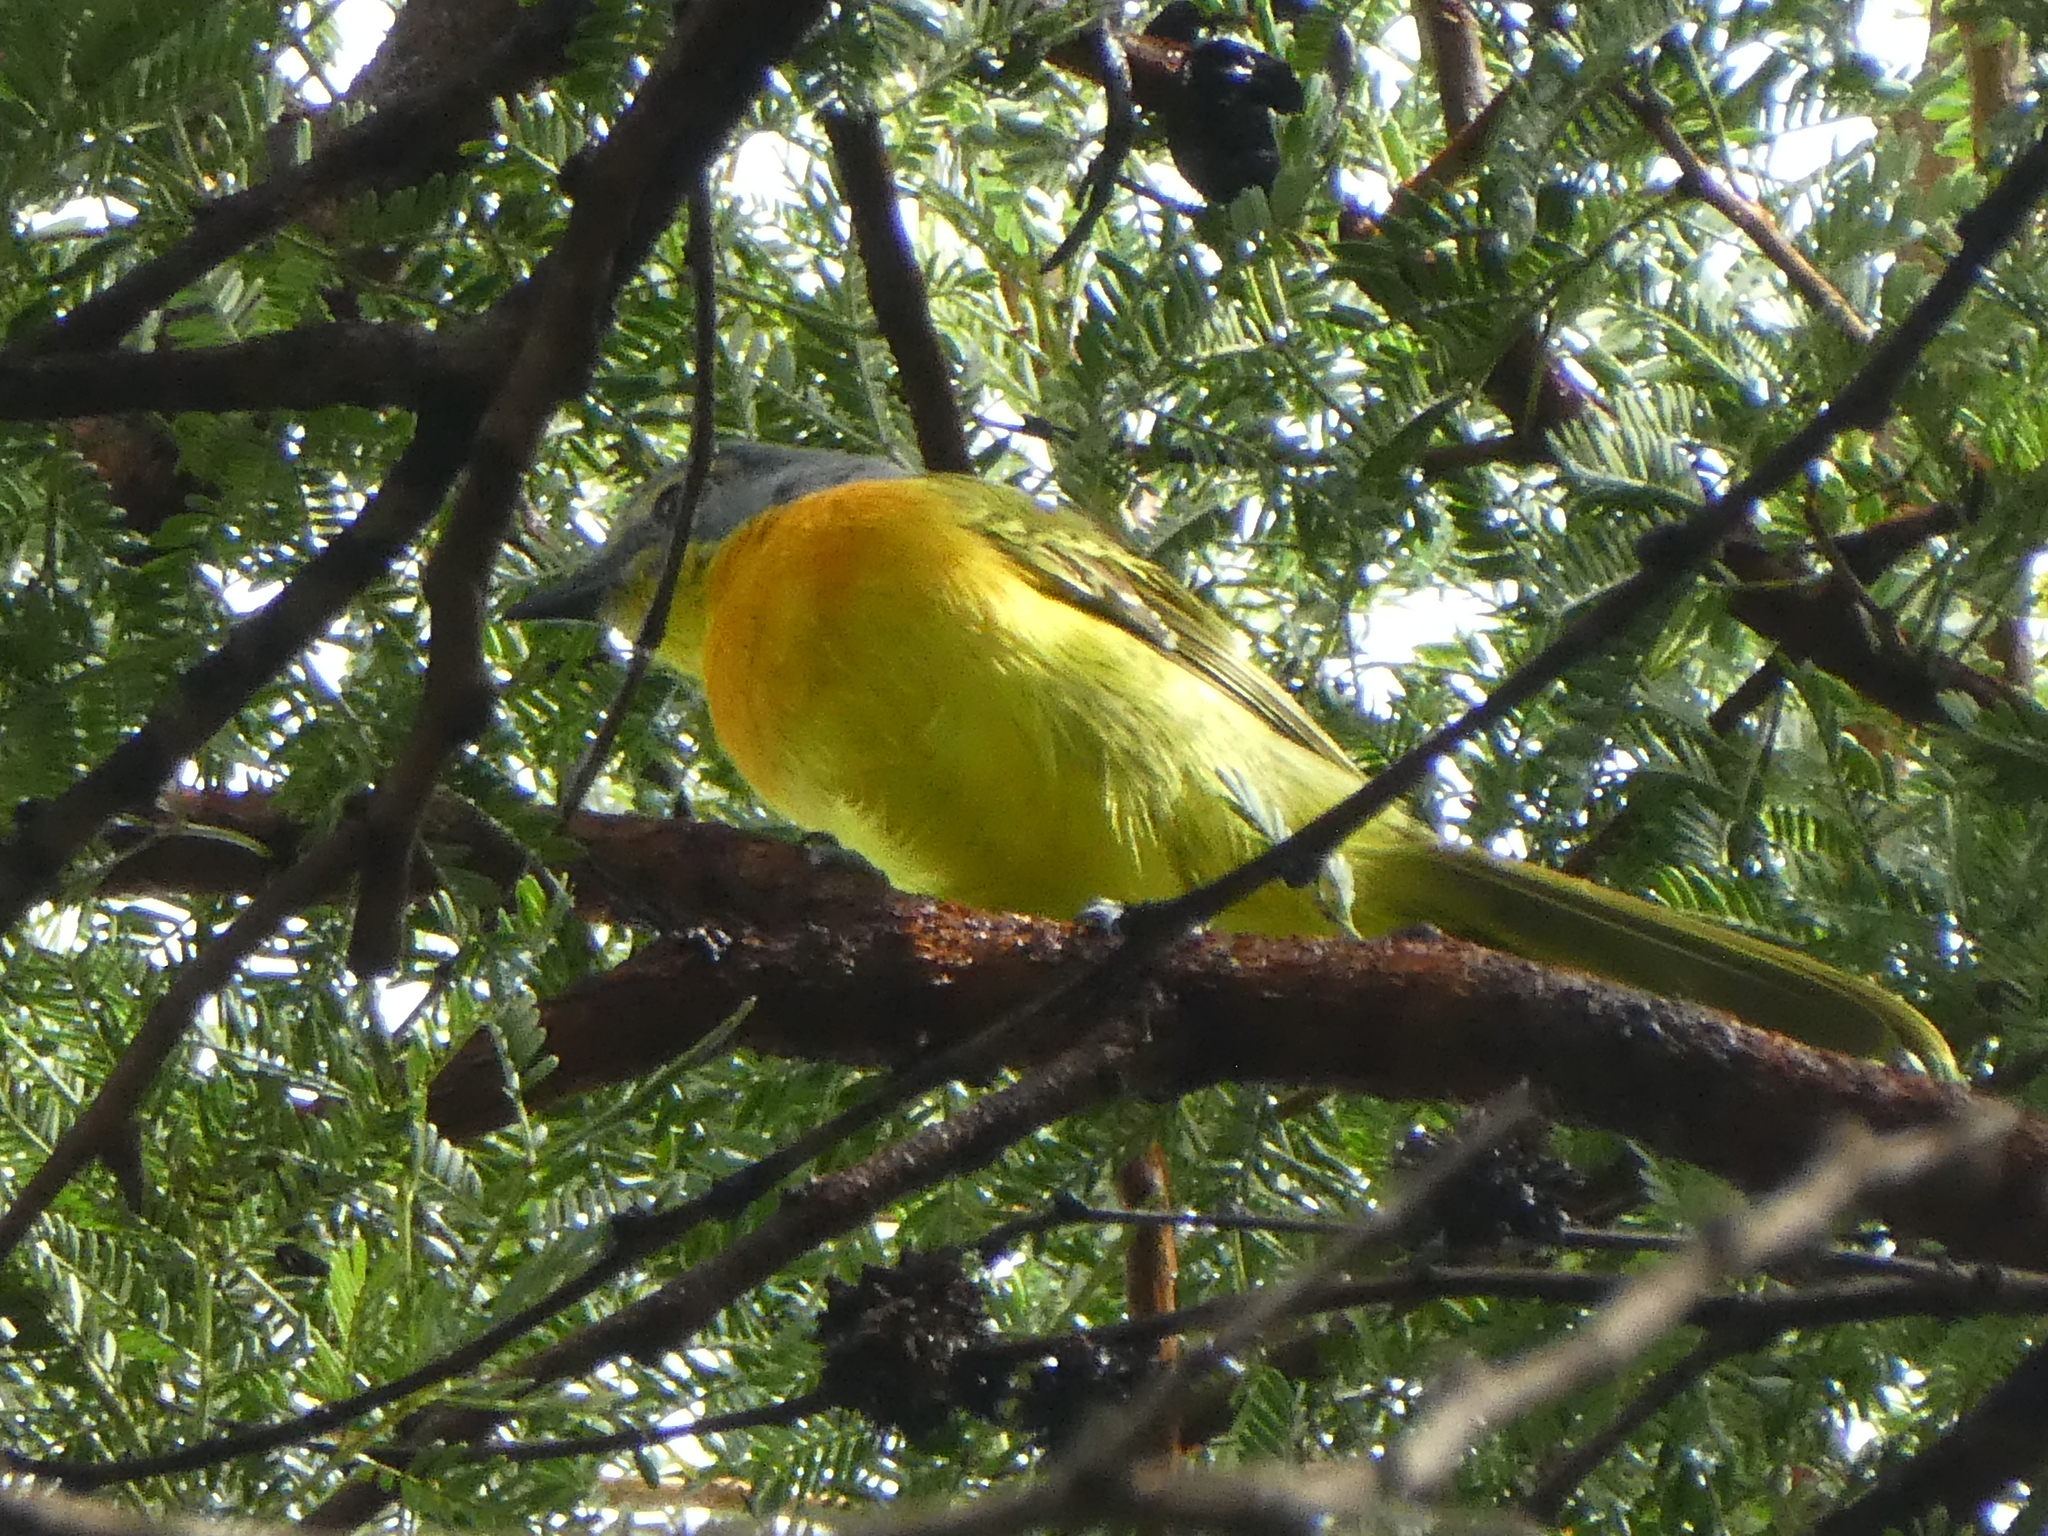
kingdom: Animalia
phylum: Chordata
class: Aves
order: Passeriformes
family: Malaconotidae
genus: Chlorophoneus
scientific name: Chlorophoneus sulfureopectus
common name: Orange-breasted bushshrike
